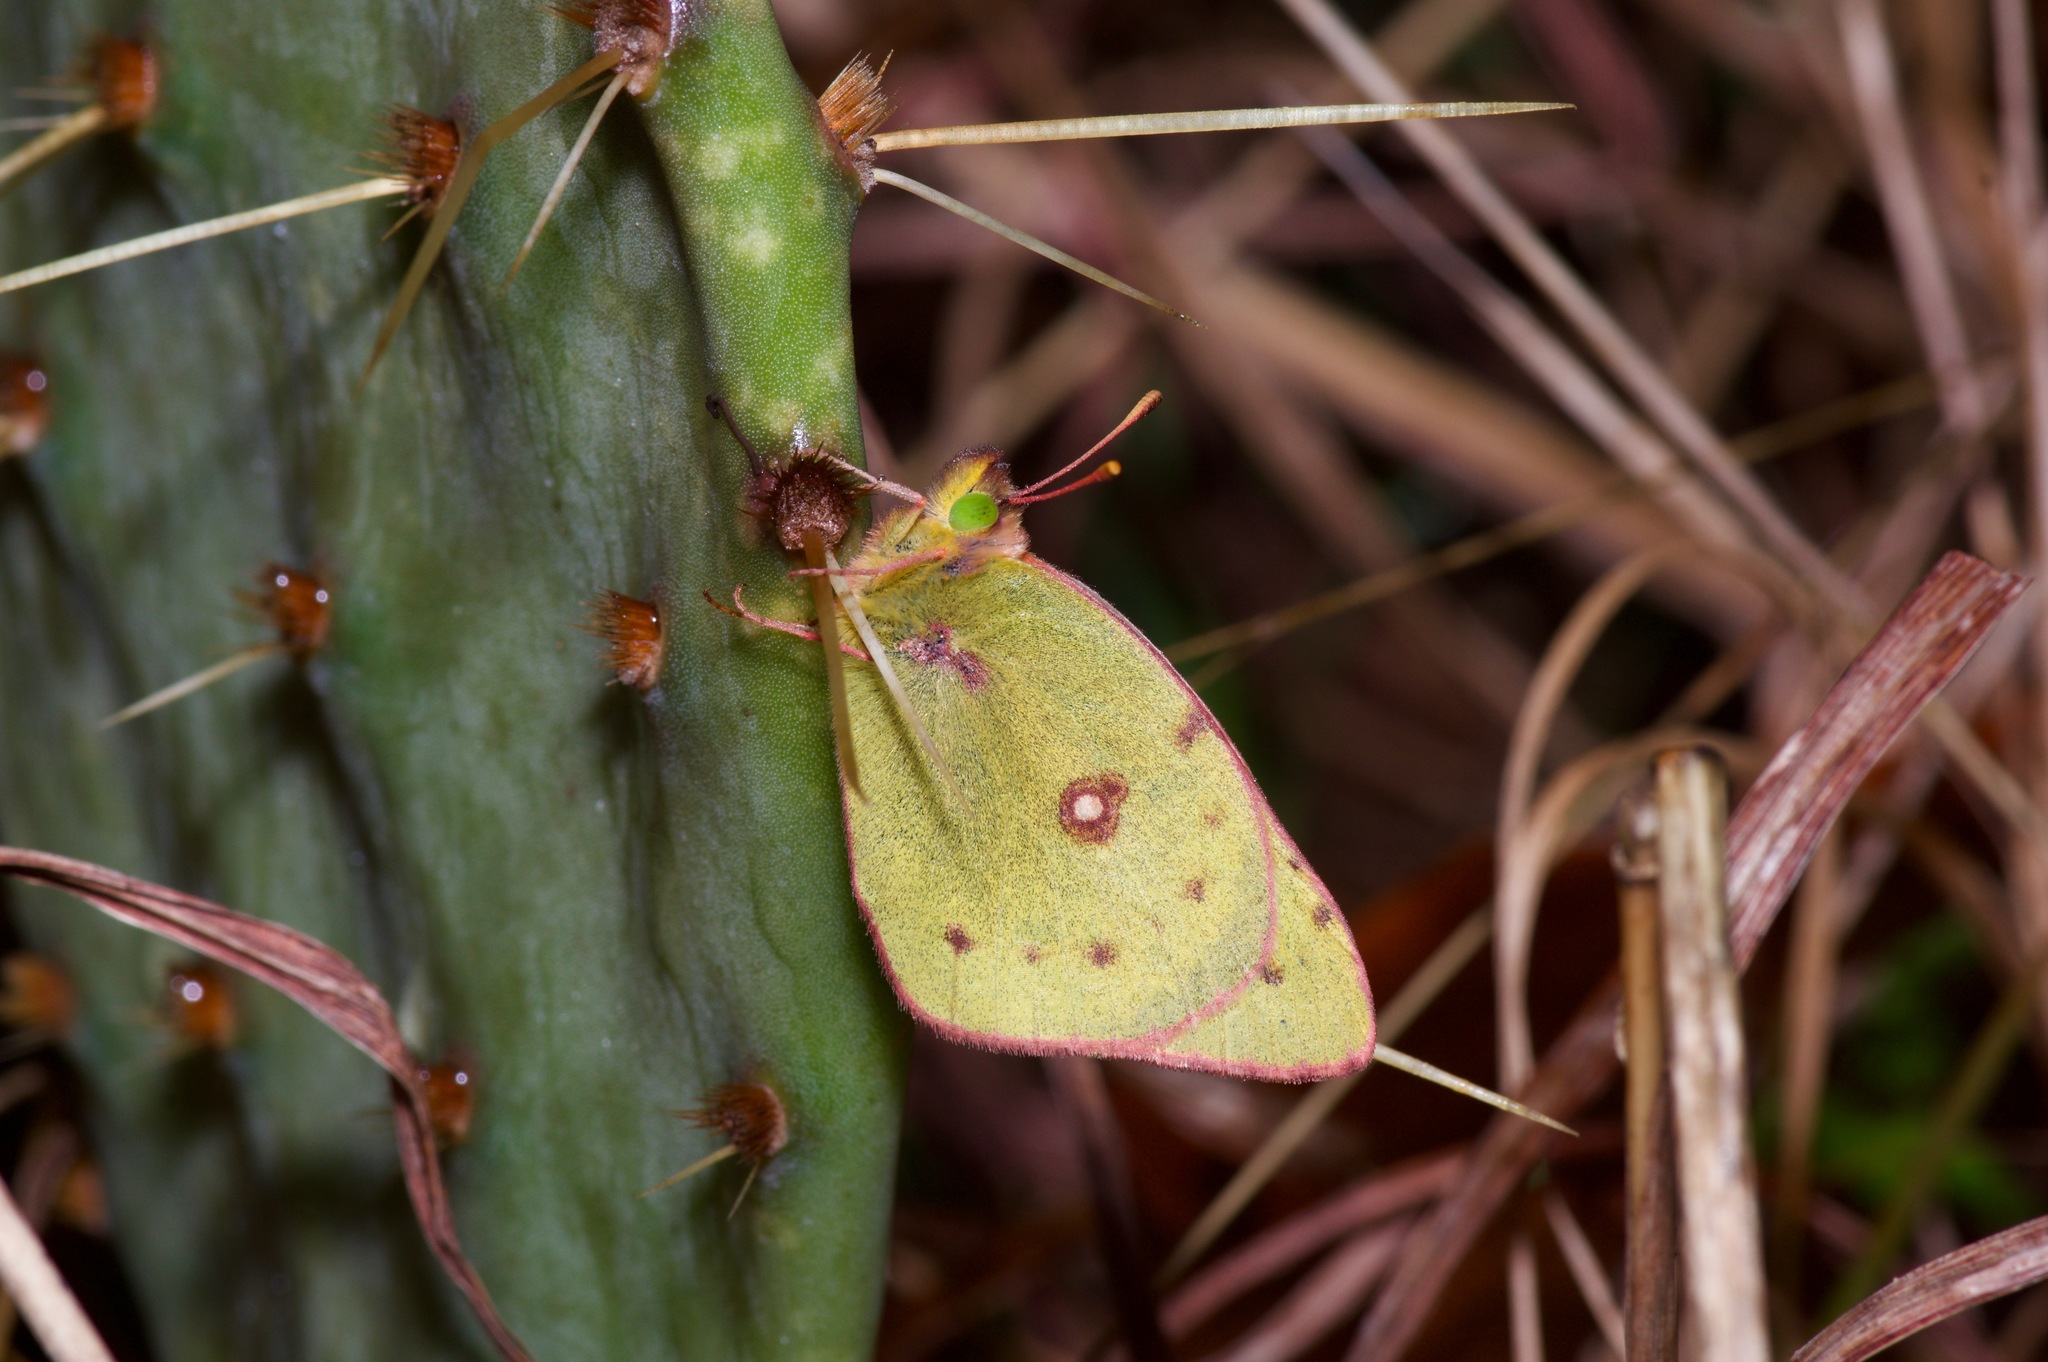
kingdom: Animalia
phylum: Arthropoda
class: Insecta
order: Lepidoptera
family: Pieridae
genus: Colias
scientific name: Colias eurytheme
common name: Alfalfa butterfly
